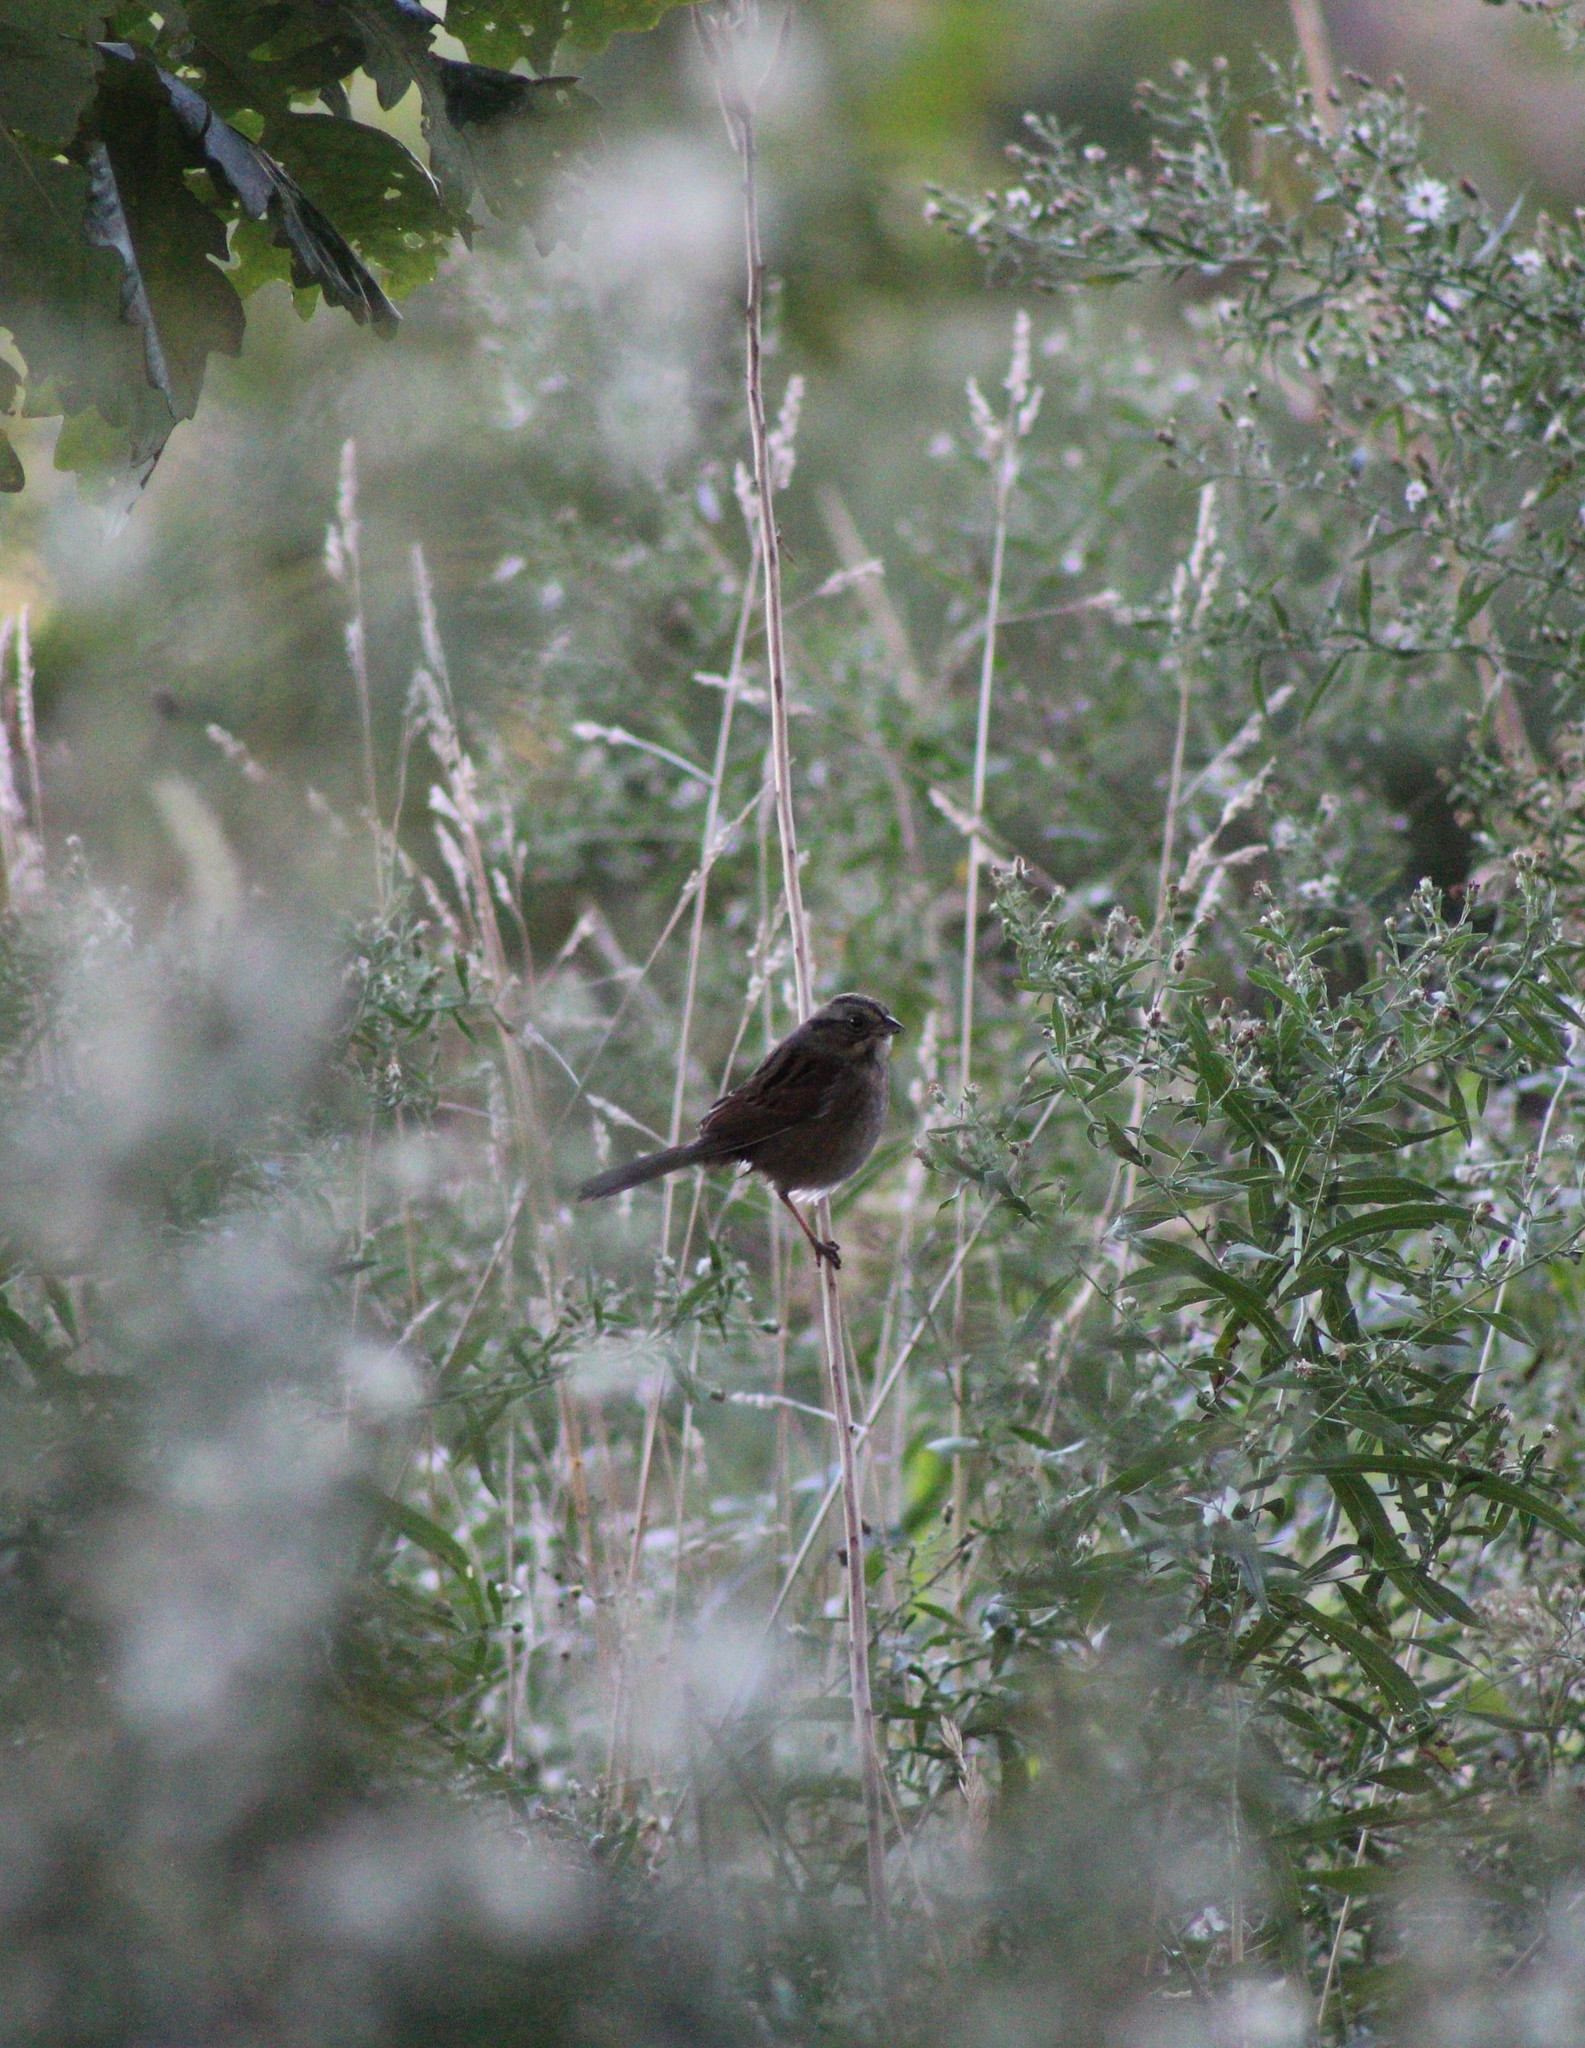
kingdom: Animalia
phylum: Chordata
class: Aves
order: Passeriformes
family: Passerellidae
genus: Zonotrichia
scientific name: Zonotrichia albicollis
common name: White-throated sparrow
